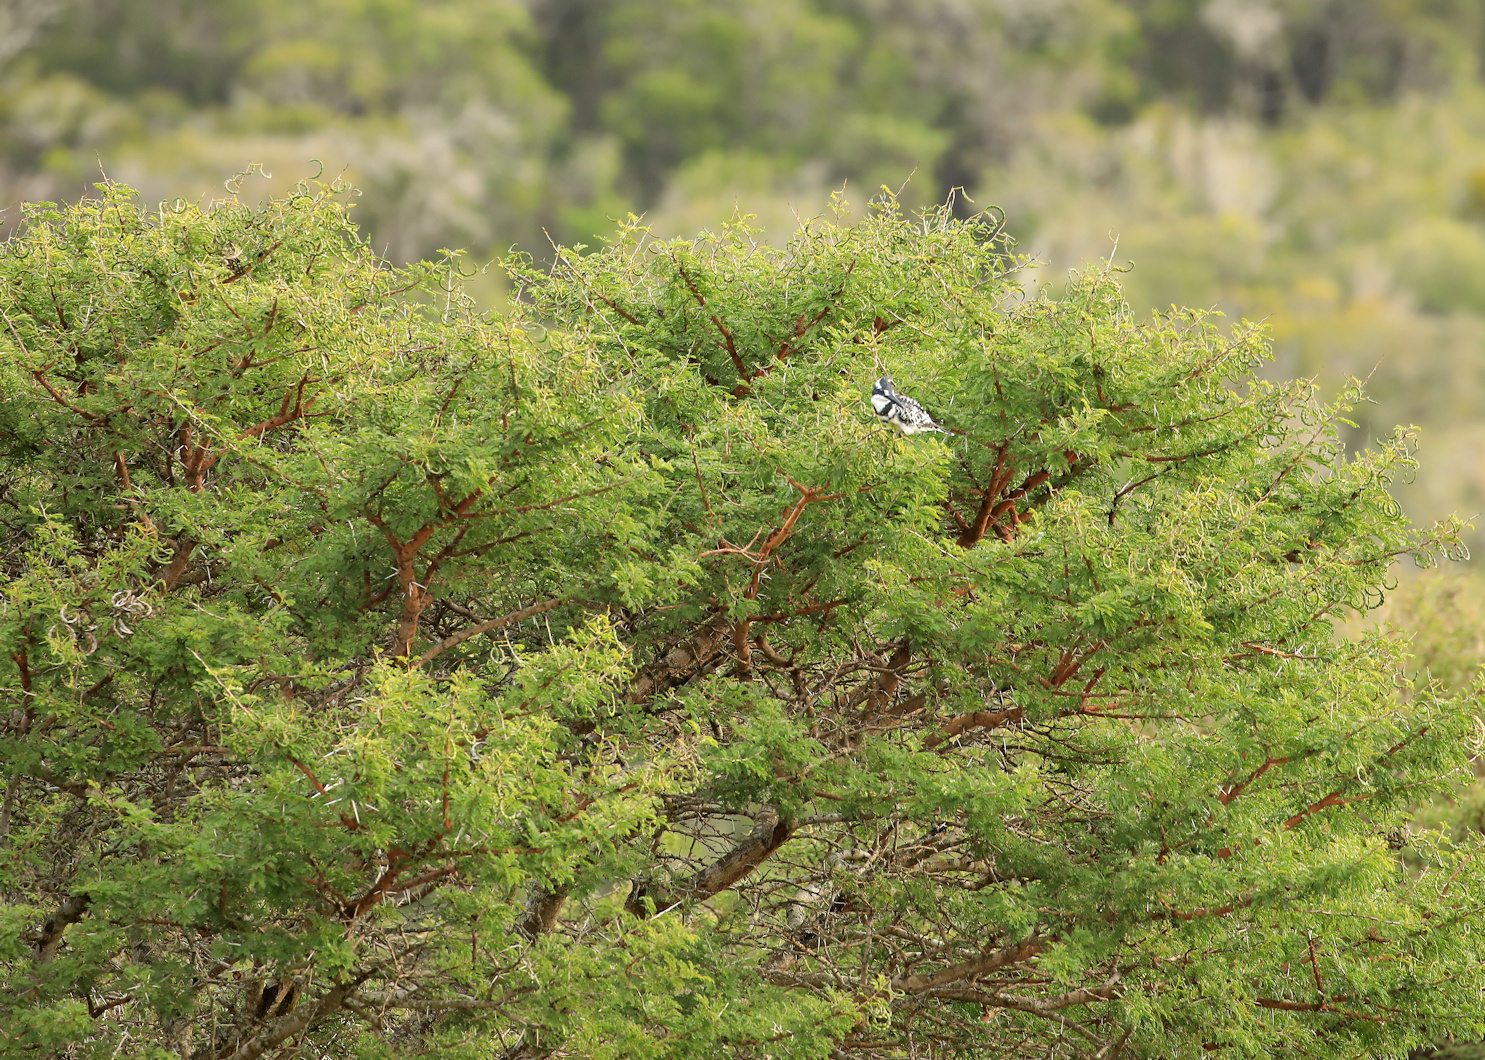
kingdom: Plantae
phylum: Tracheophyta
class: Magnoliopsida
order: Fabales
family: Fabaceae
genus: Vachellia
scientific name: Vachellia karroo
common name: Sweet thorn
